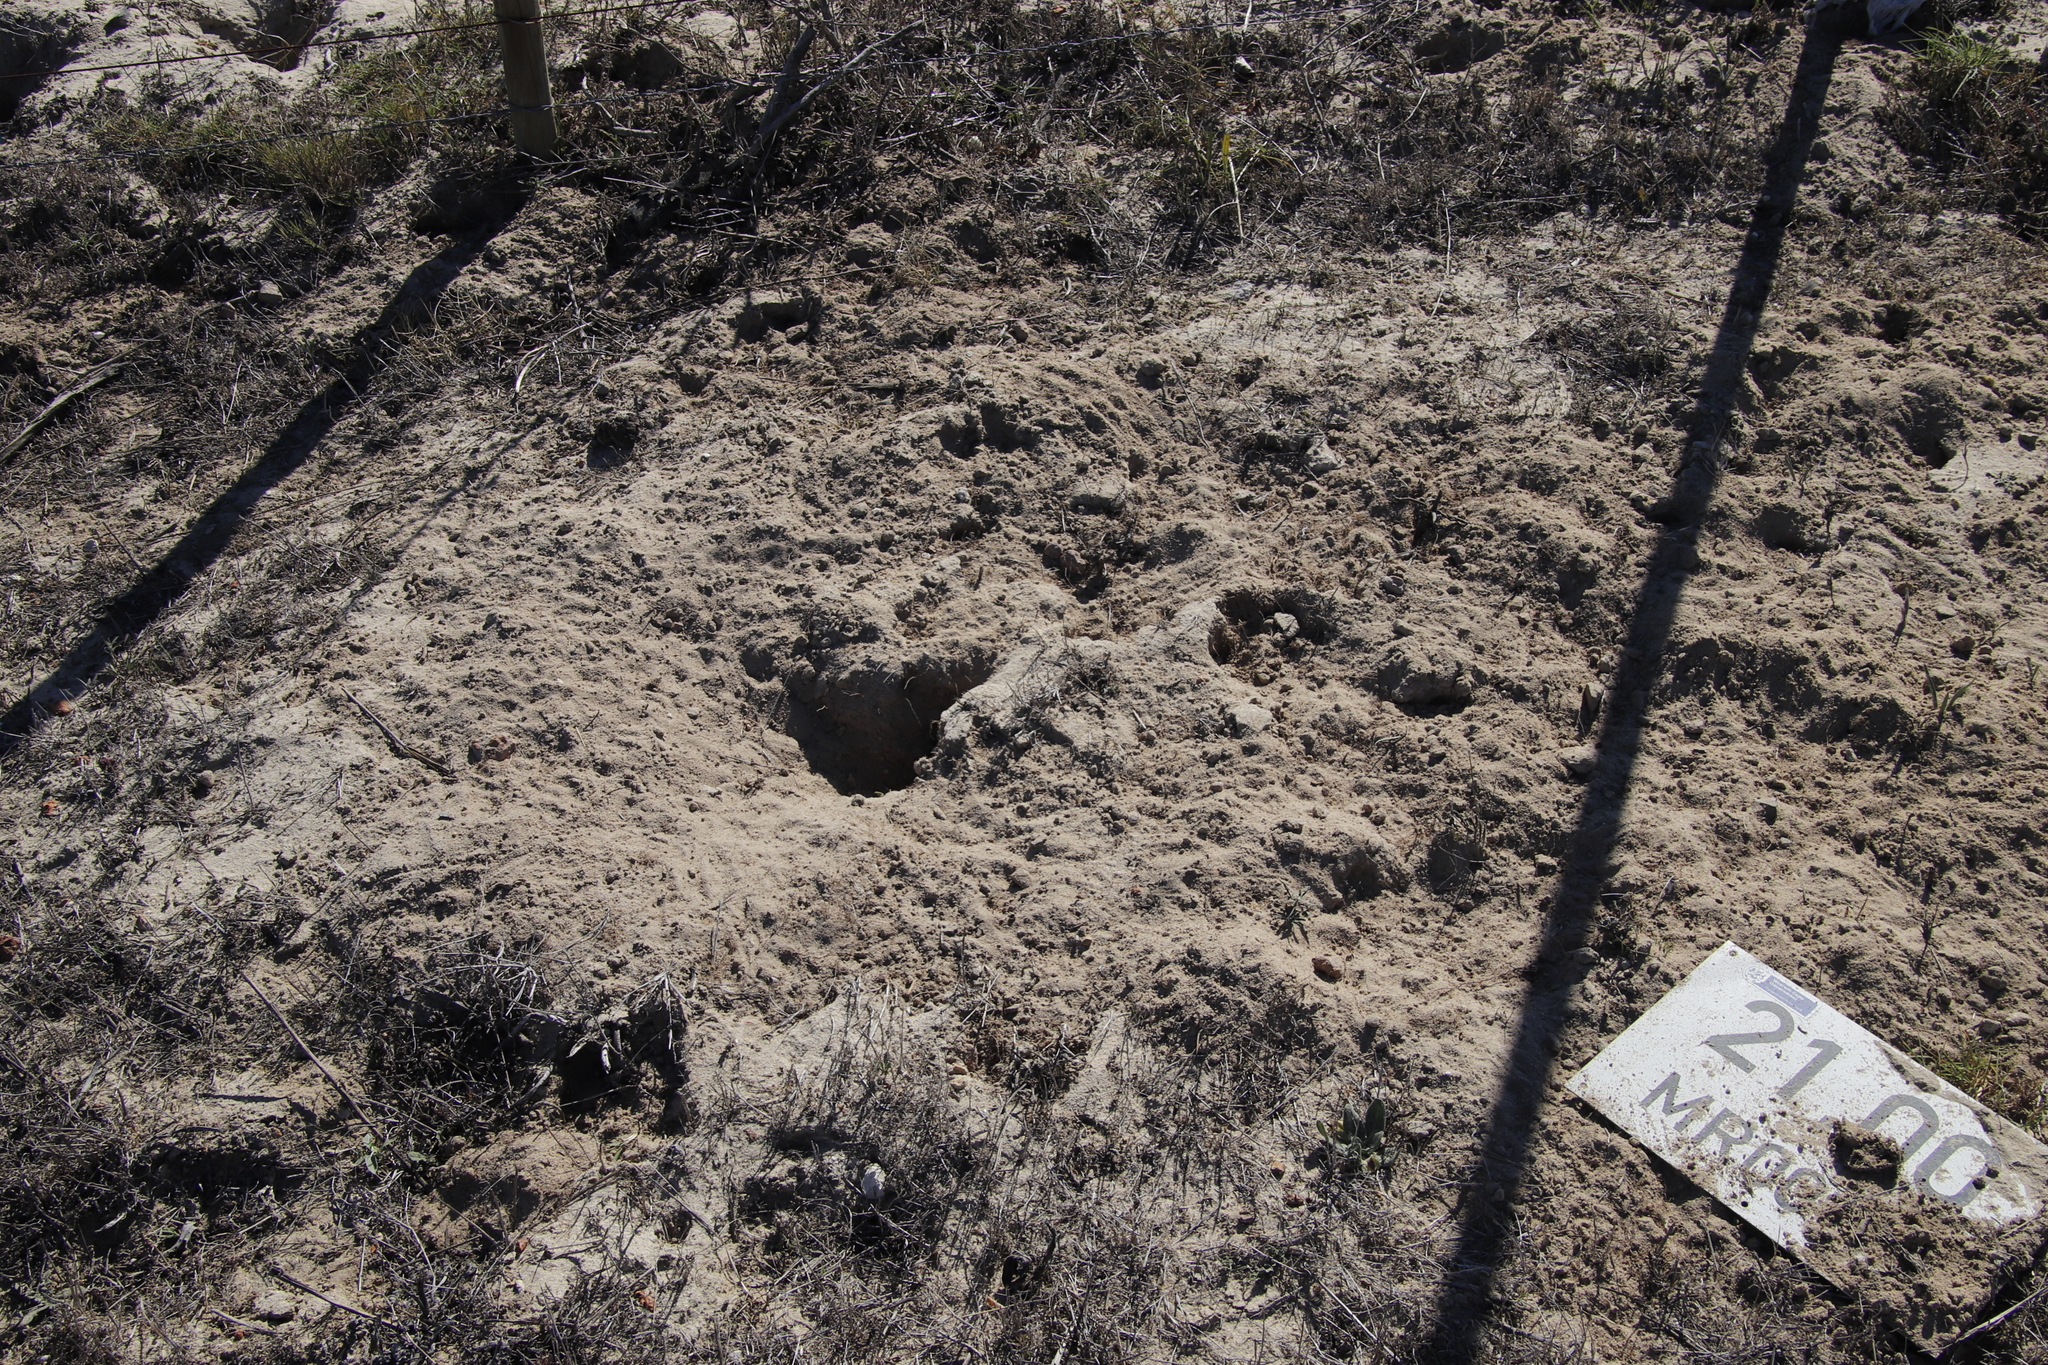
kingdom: Animalia
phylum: Chordata
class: Mammalia
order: Rodentia
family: Muridae
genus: Gerbilliscus
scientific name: Gerbilliscus afer
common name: Cape gerbil
